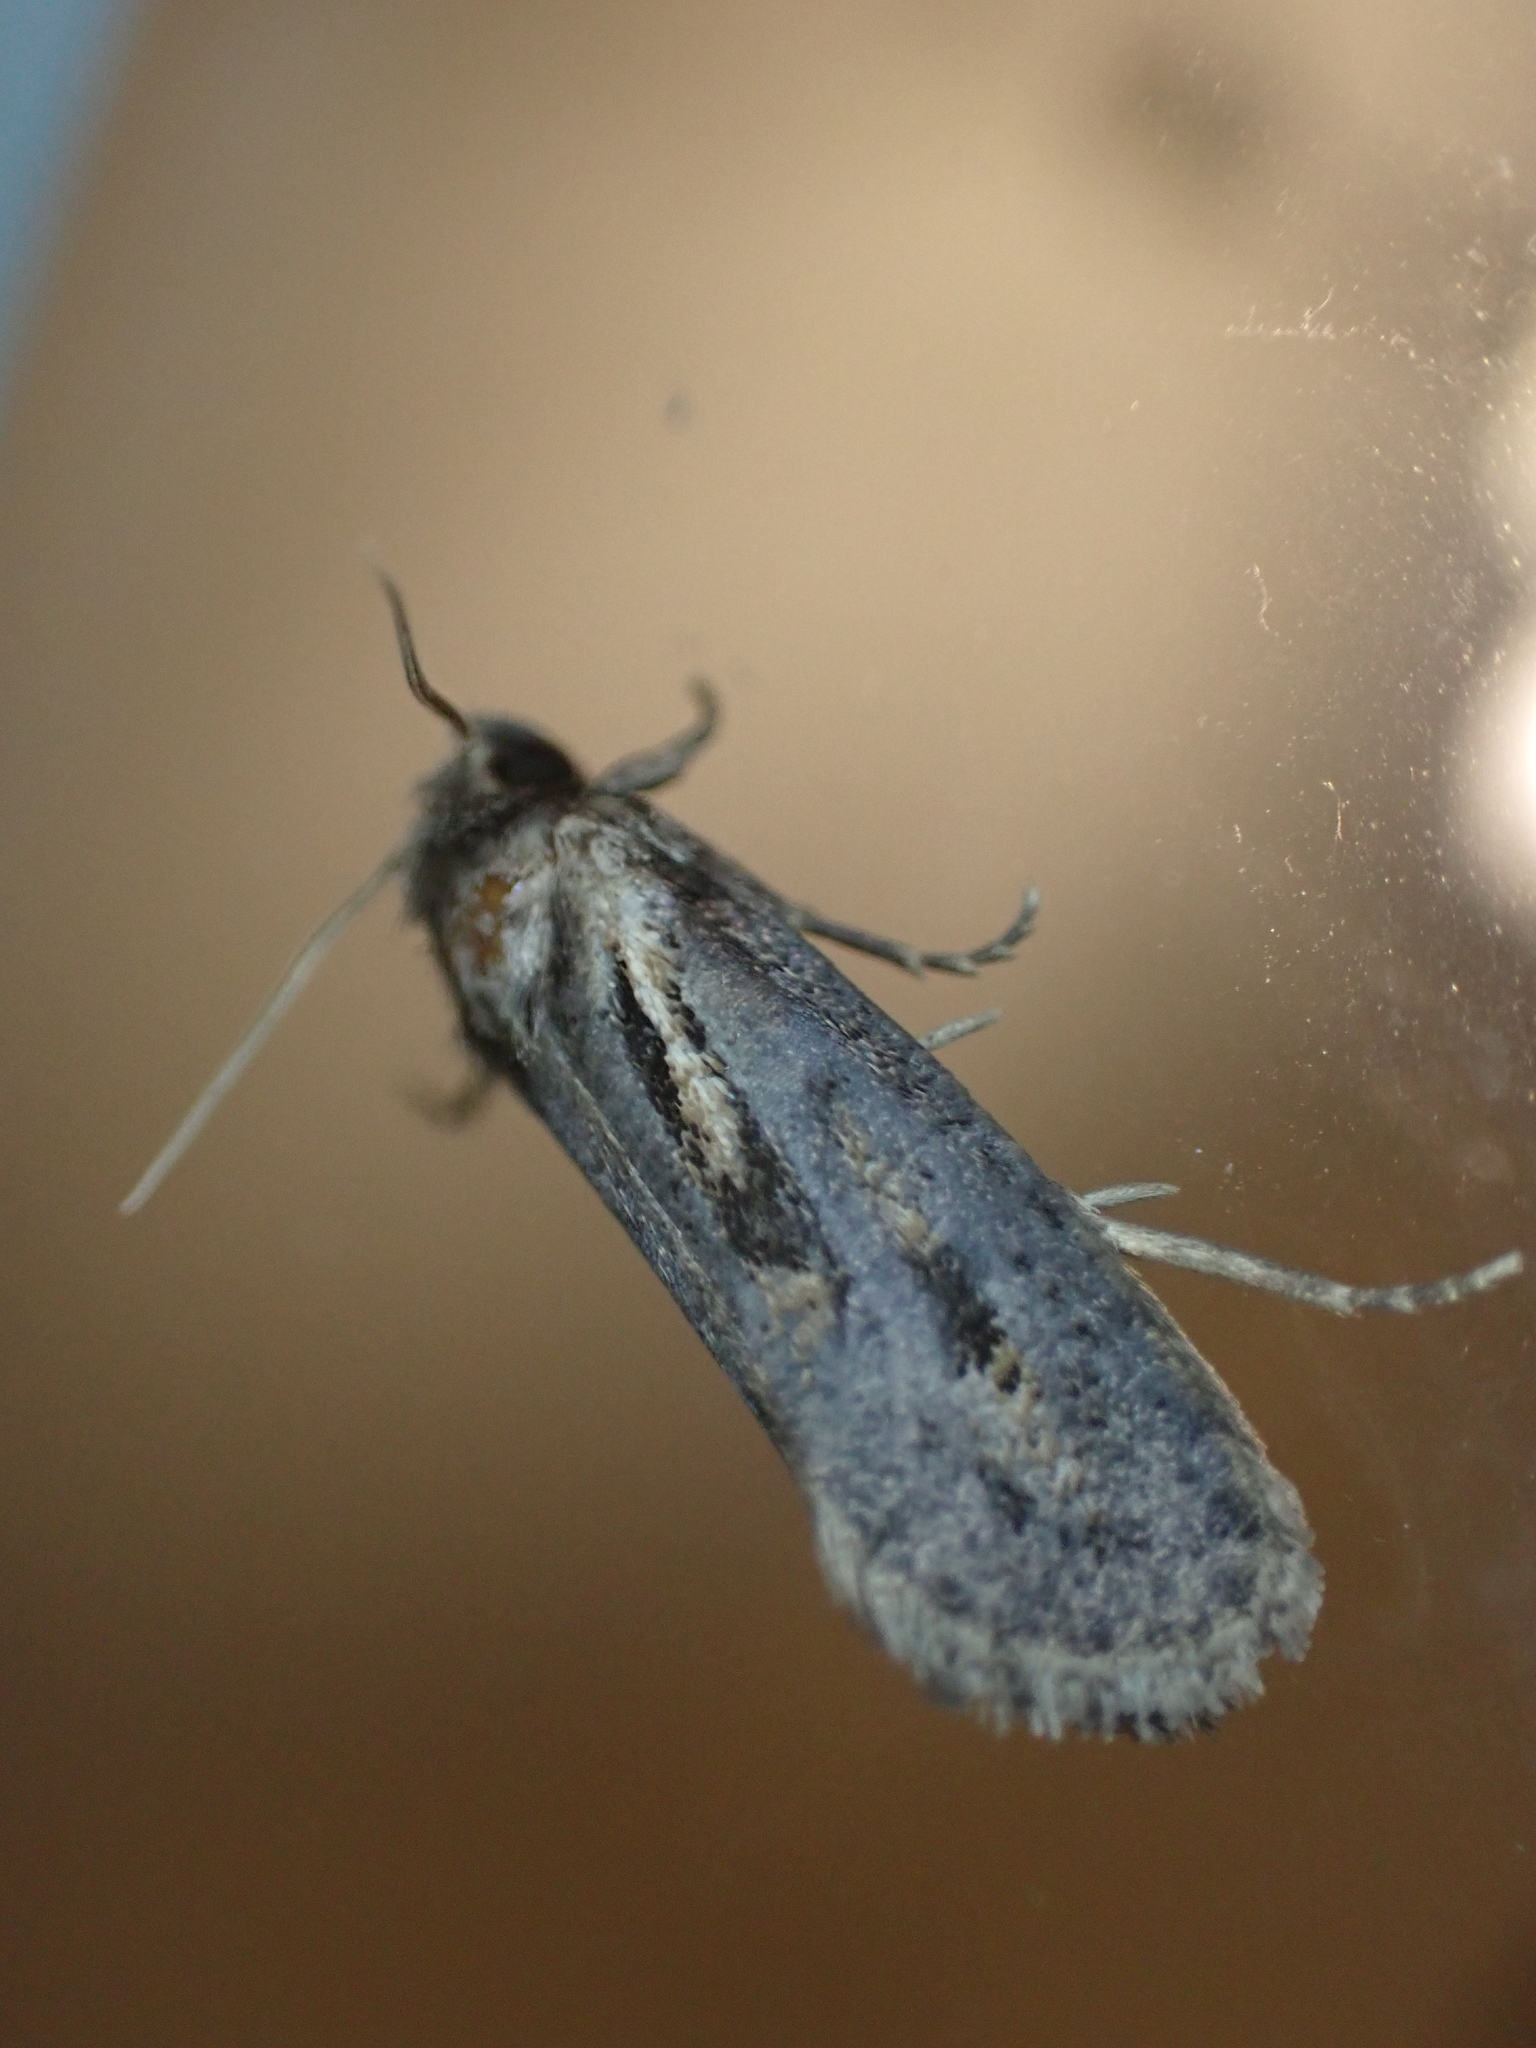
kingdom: Animalia
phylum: Arthropoda
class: Insecta
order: Lepidoptera
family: Tineidae
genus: Acrolophus
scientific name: Acrolophus popeanella
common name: Clemens' grass tubeworm moth
